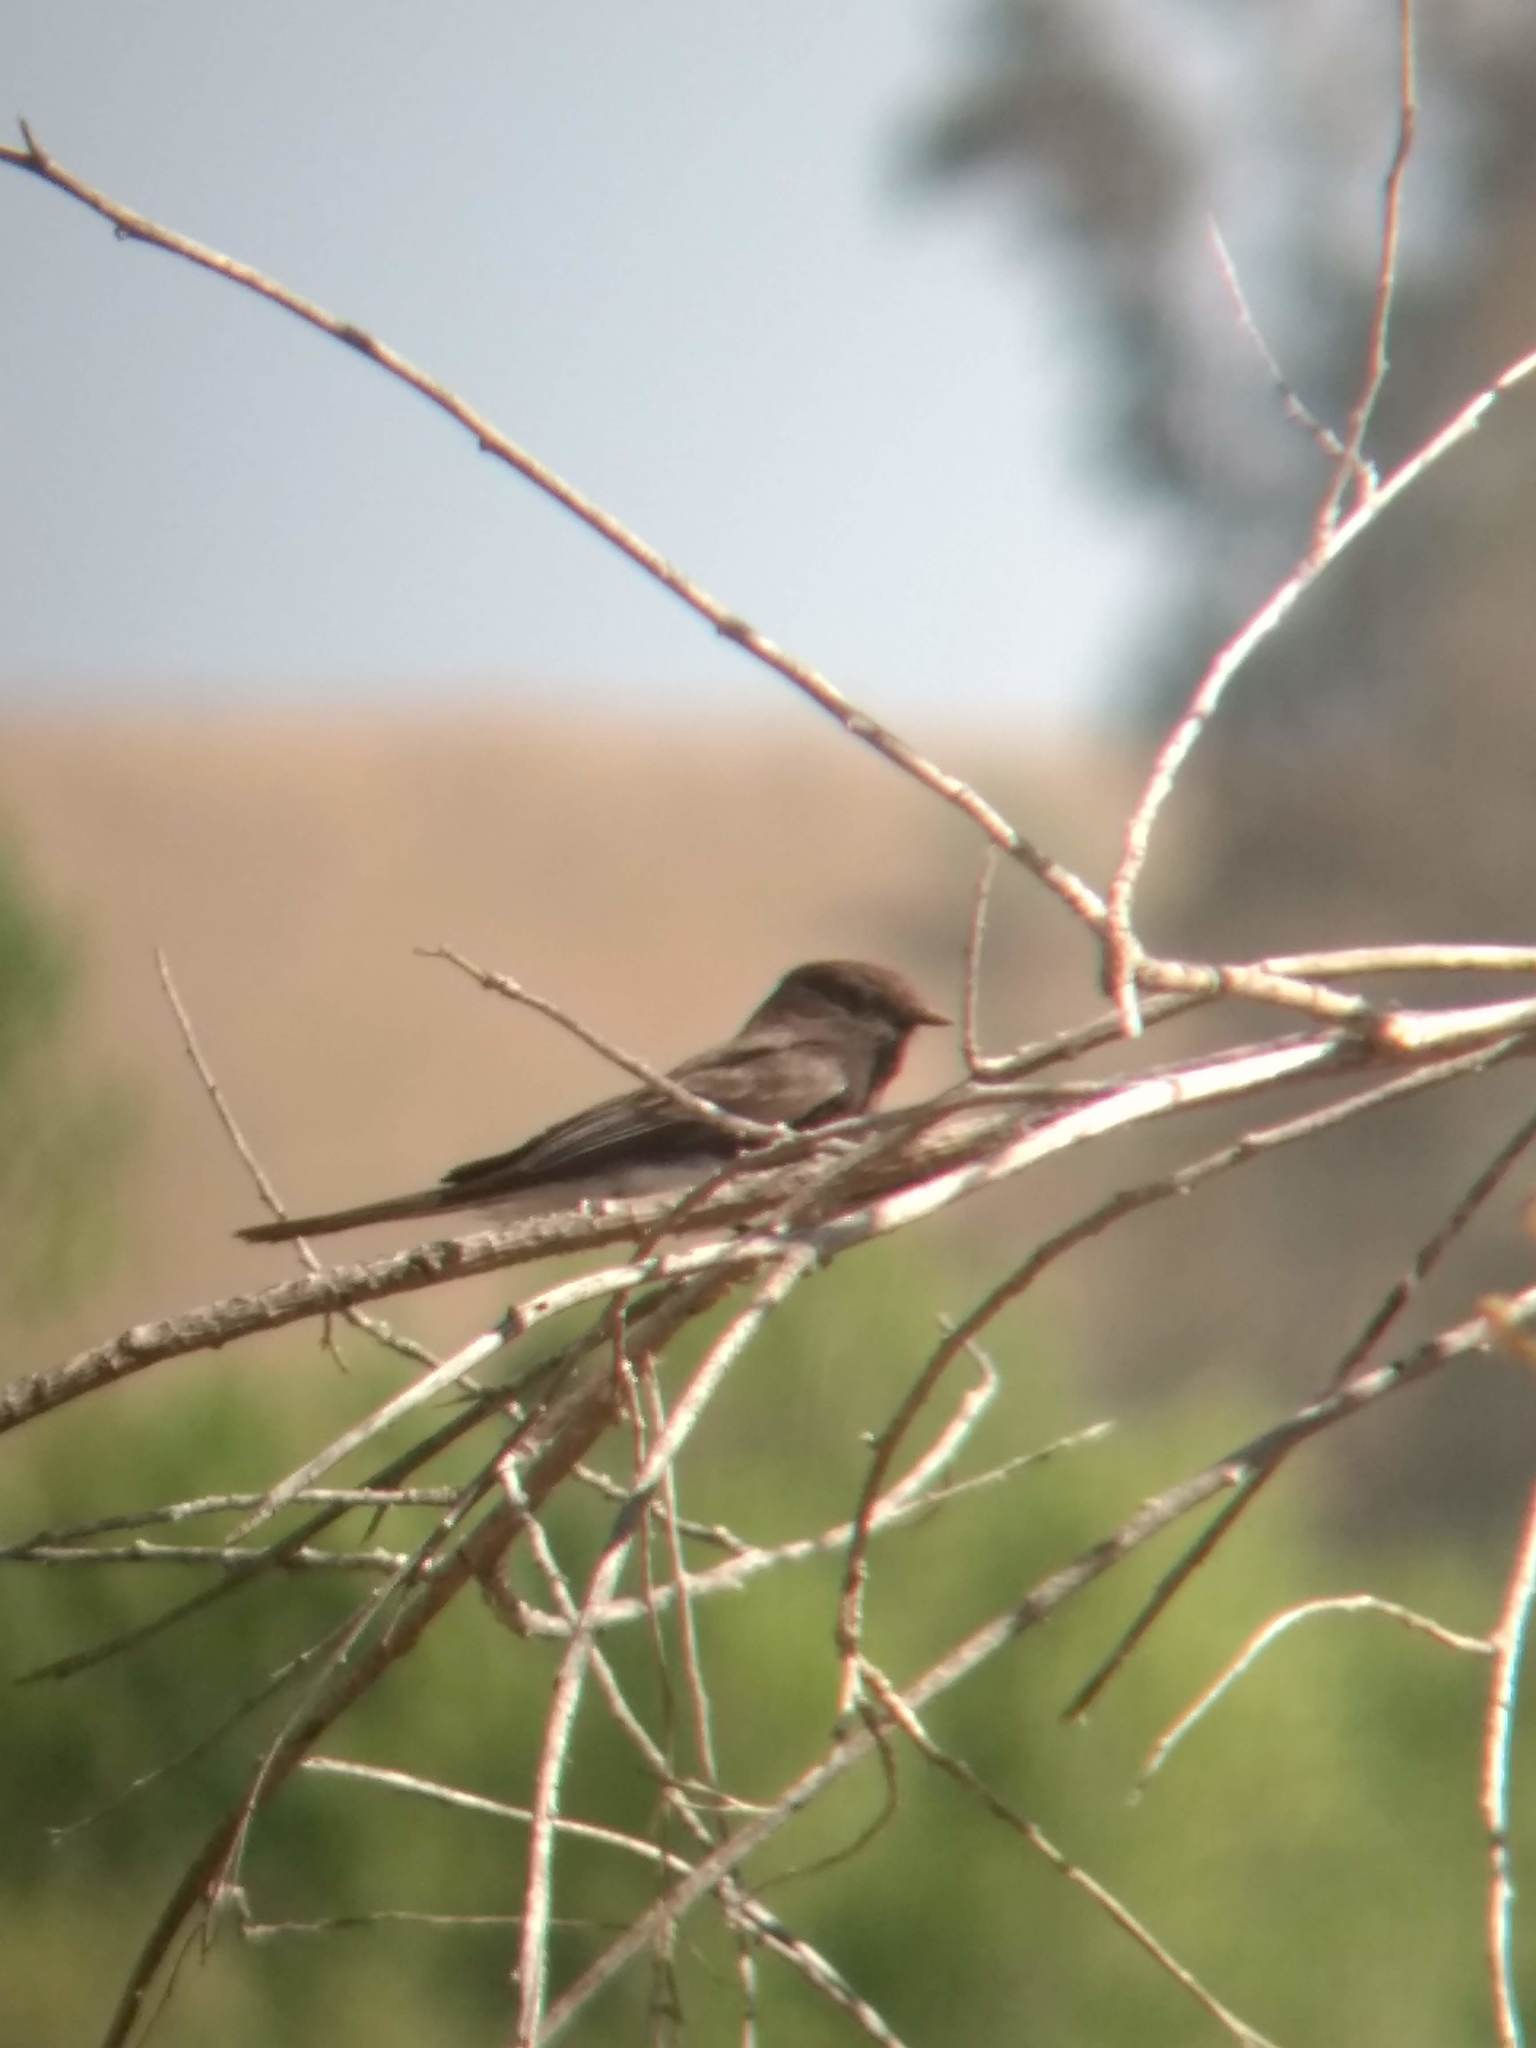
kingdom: Animalia
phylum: Chordata
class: Aves
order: Passeriformes
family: Tyrannidae
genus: Sayornis
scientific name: Sayornis nigricans
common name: Black phoebe
